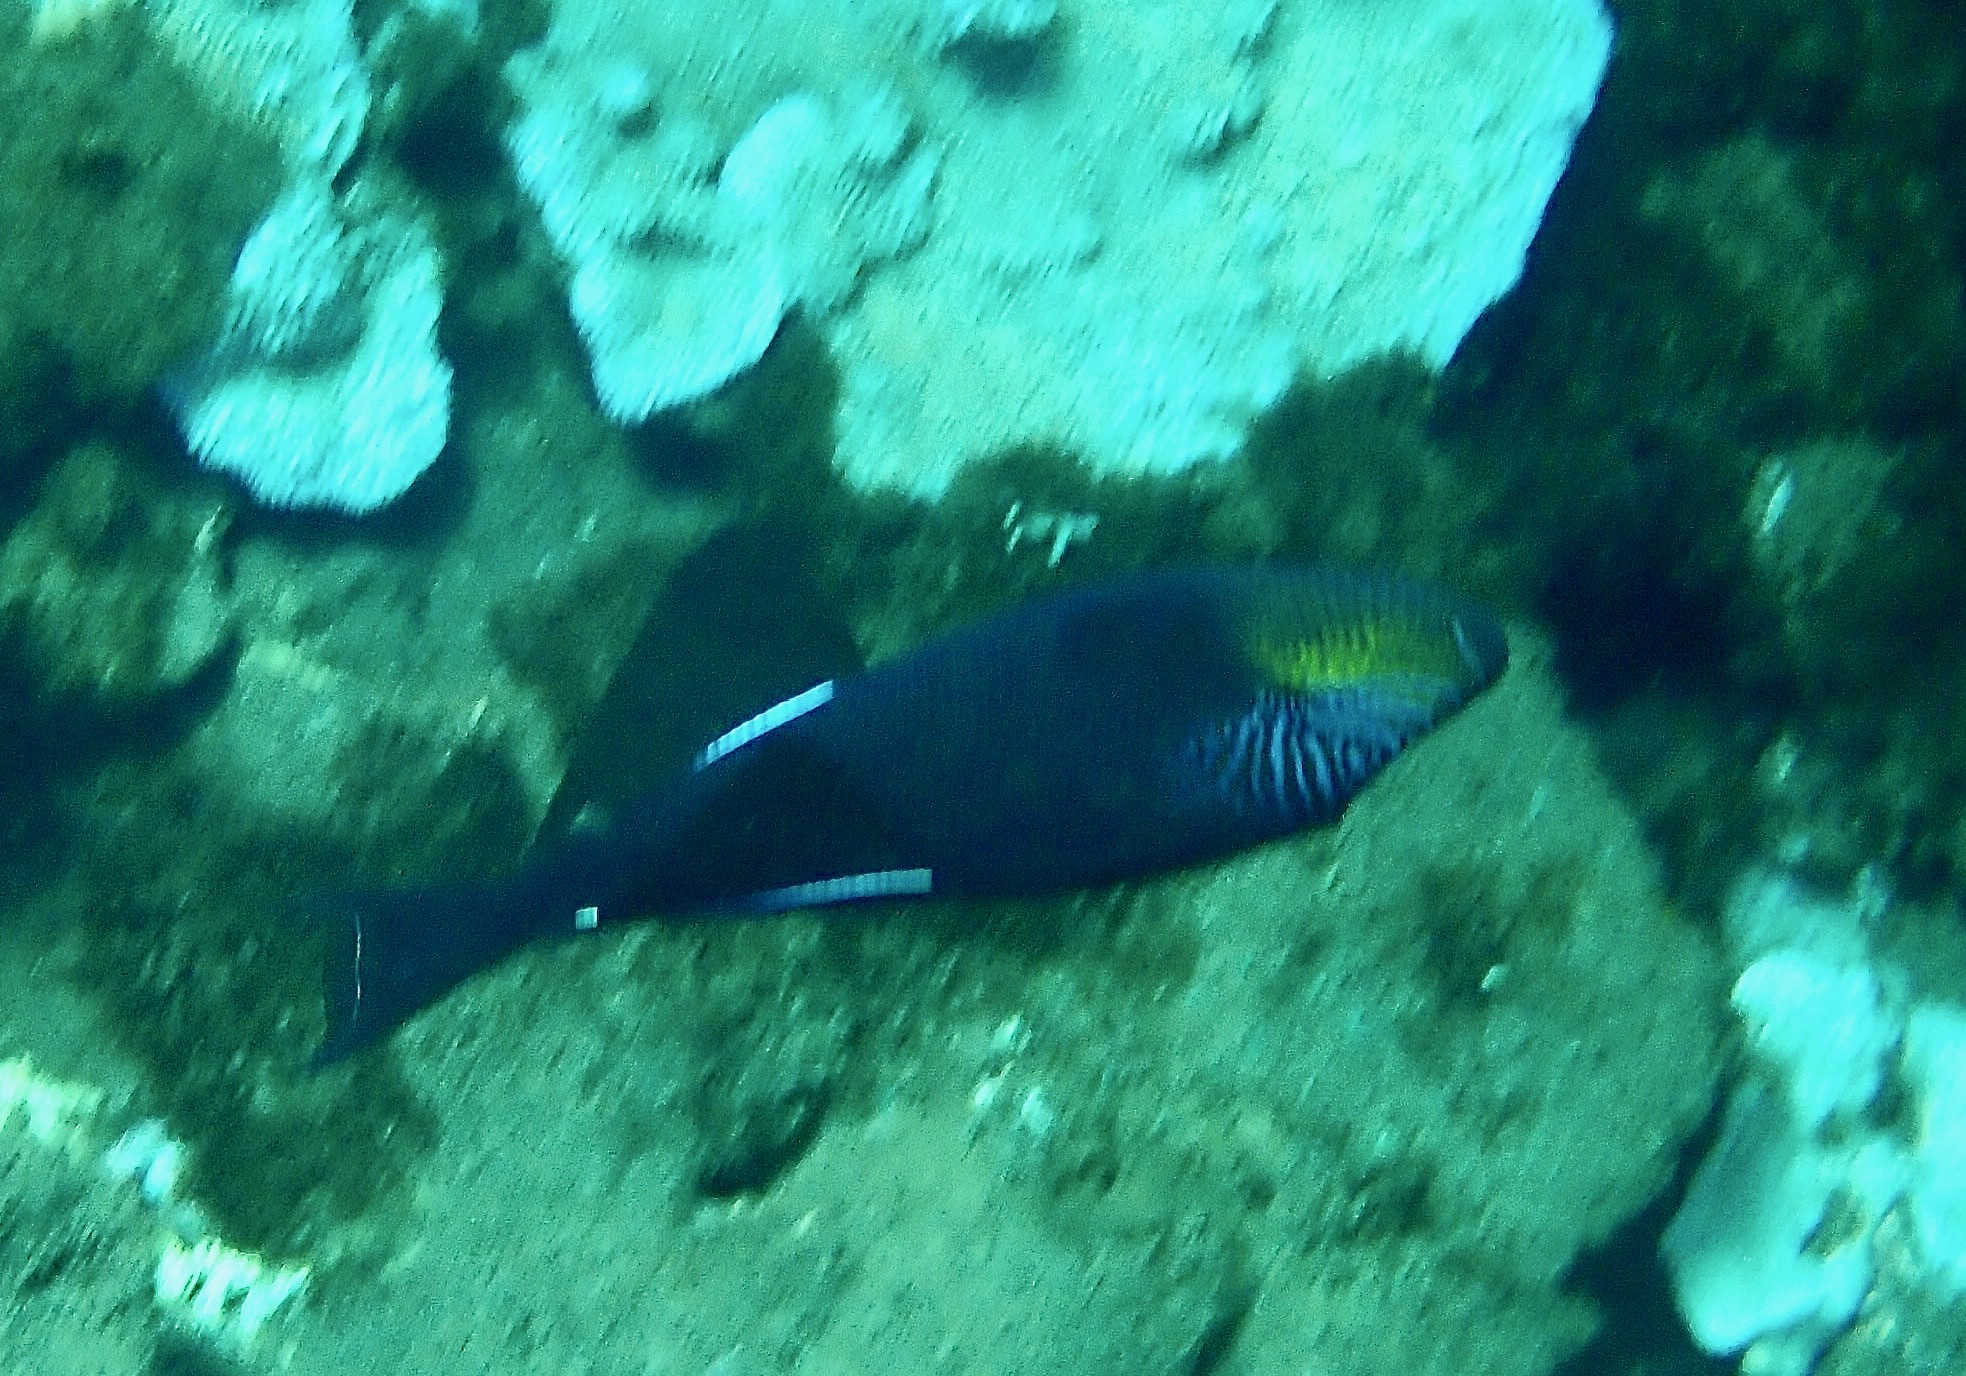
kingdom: Animalia
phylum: Chordata
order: Tetraodontiformes
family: Balistidae
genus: Melichthys
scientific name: Melichthys niger
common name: Black durgon
